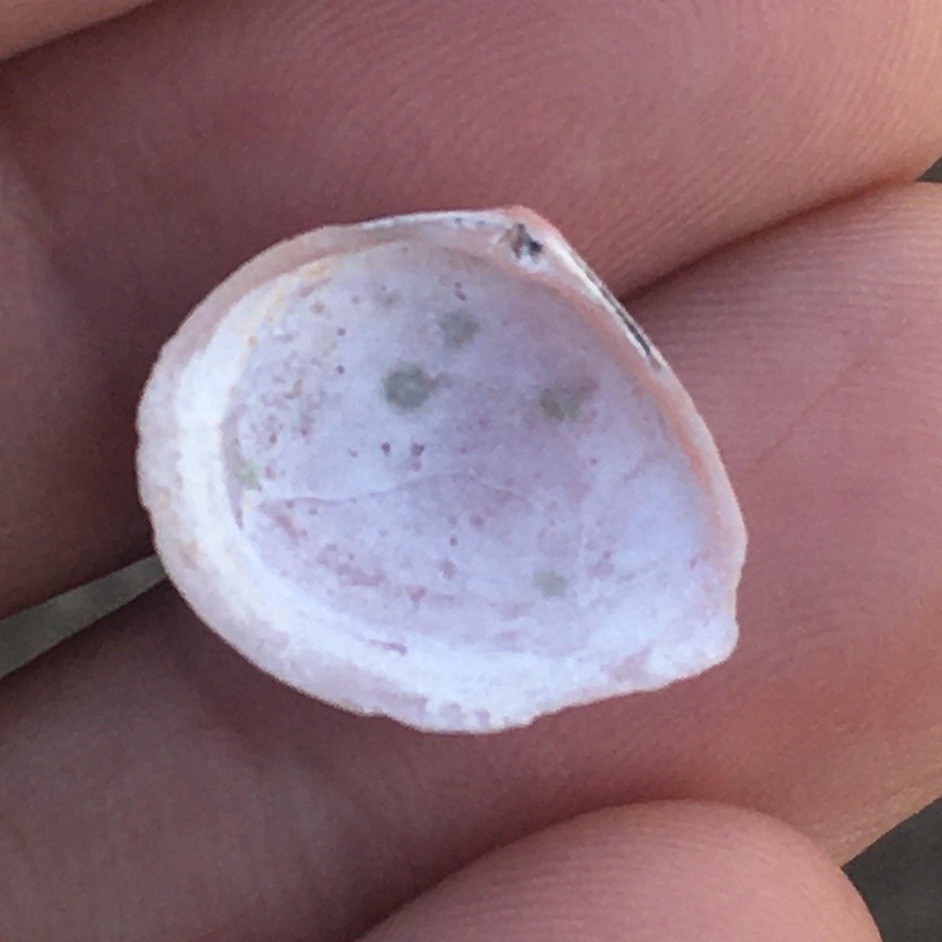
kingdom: Animalia
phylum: Mollusca
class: Bivalvia
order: Cardiida
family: Tellinidae
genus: Macoma
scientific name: Macoma balthica
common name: Baltic tellin
